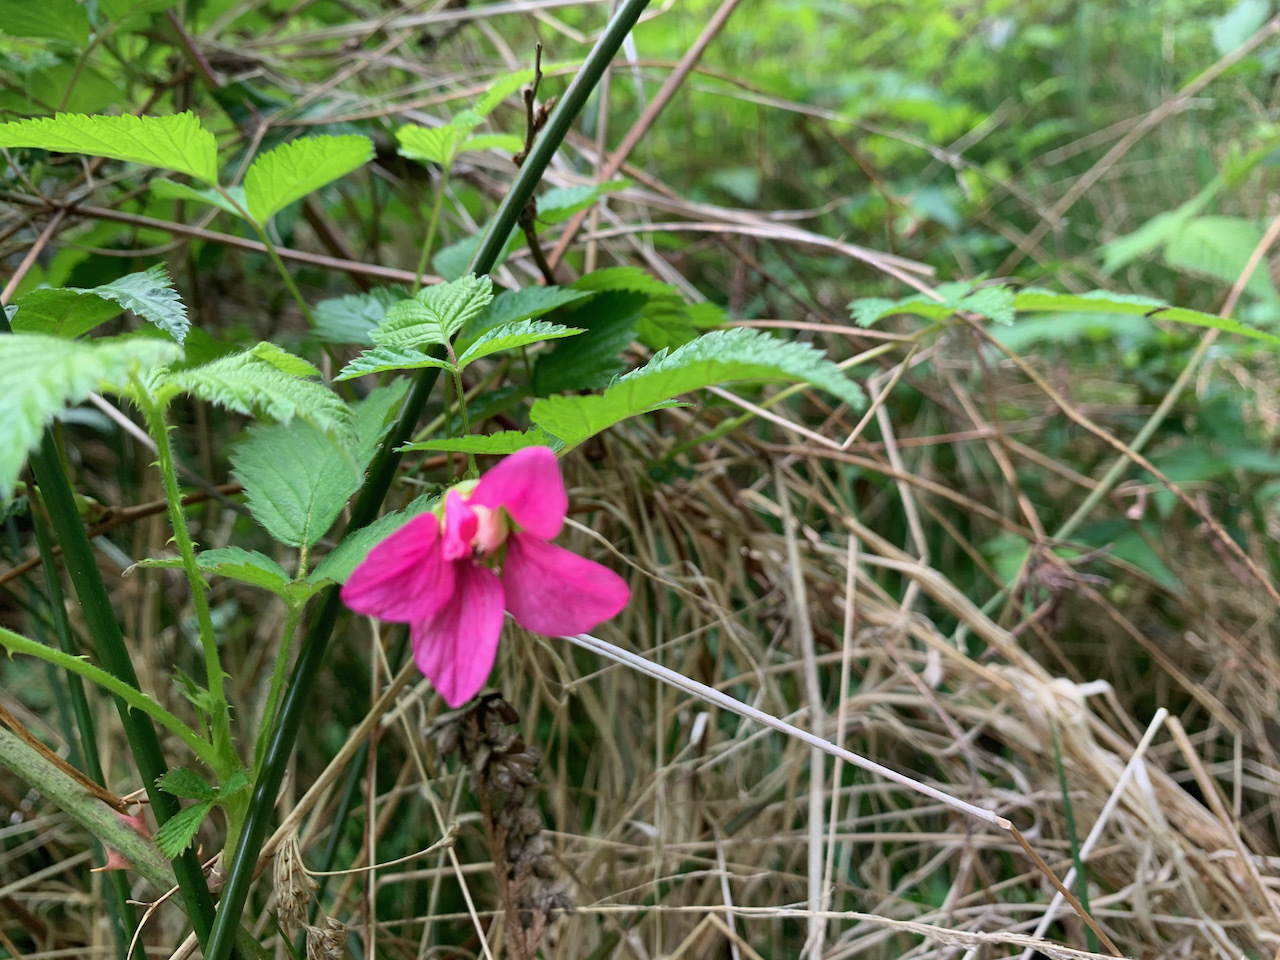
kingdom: Plantae
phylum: Tracheophyta
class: Magnoliopsida
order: Rosales
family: Rosaceae
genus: Rubus
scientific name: Rubus spectabilis
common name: Salmonberry
